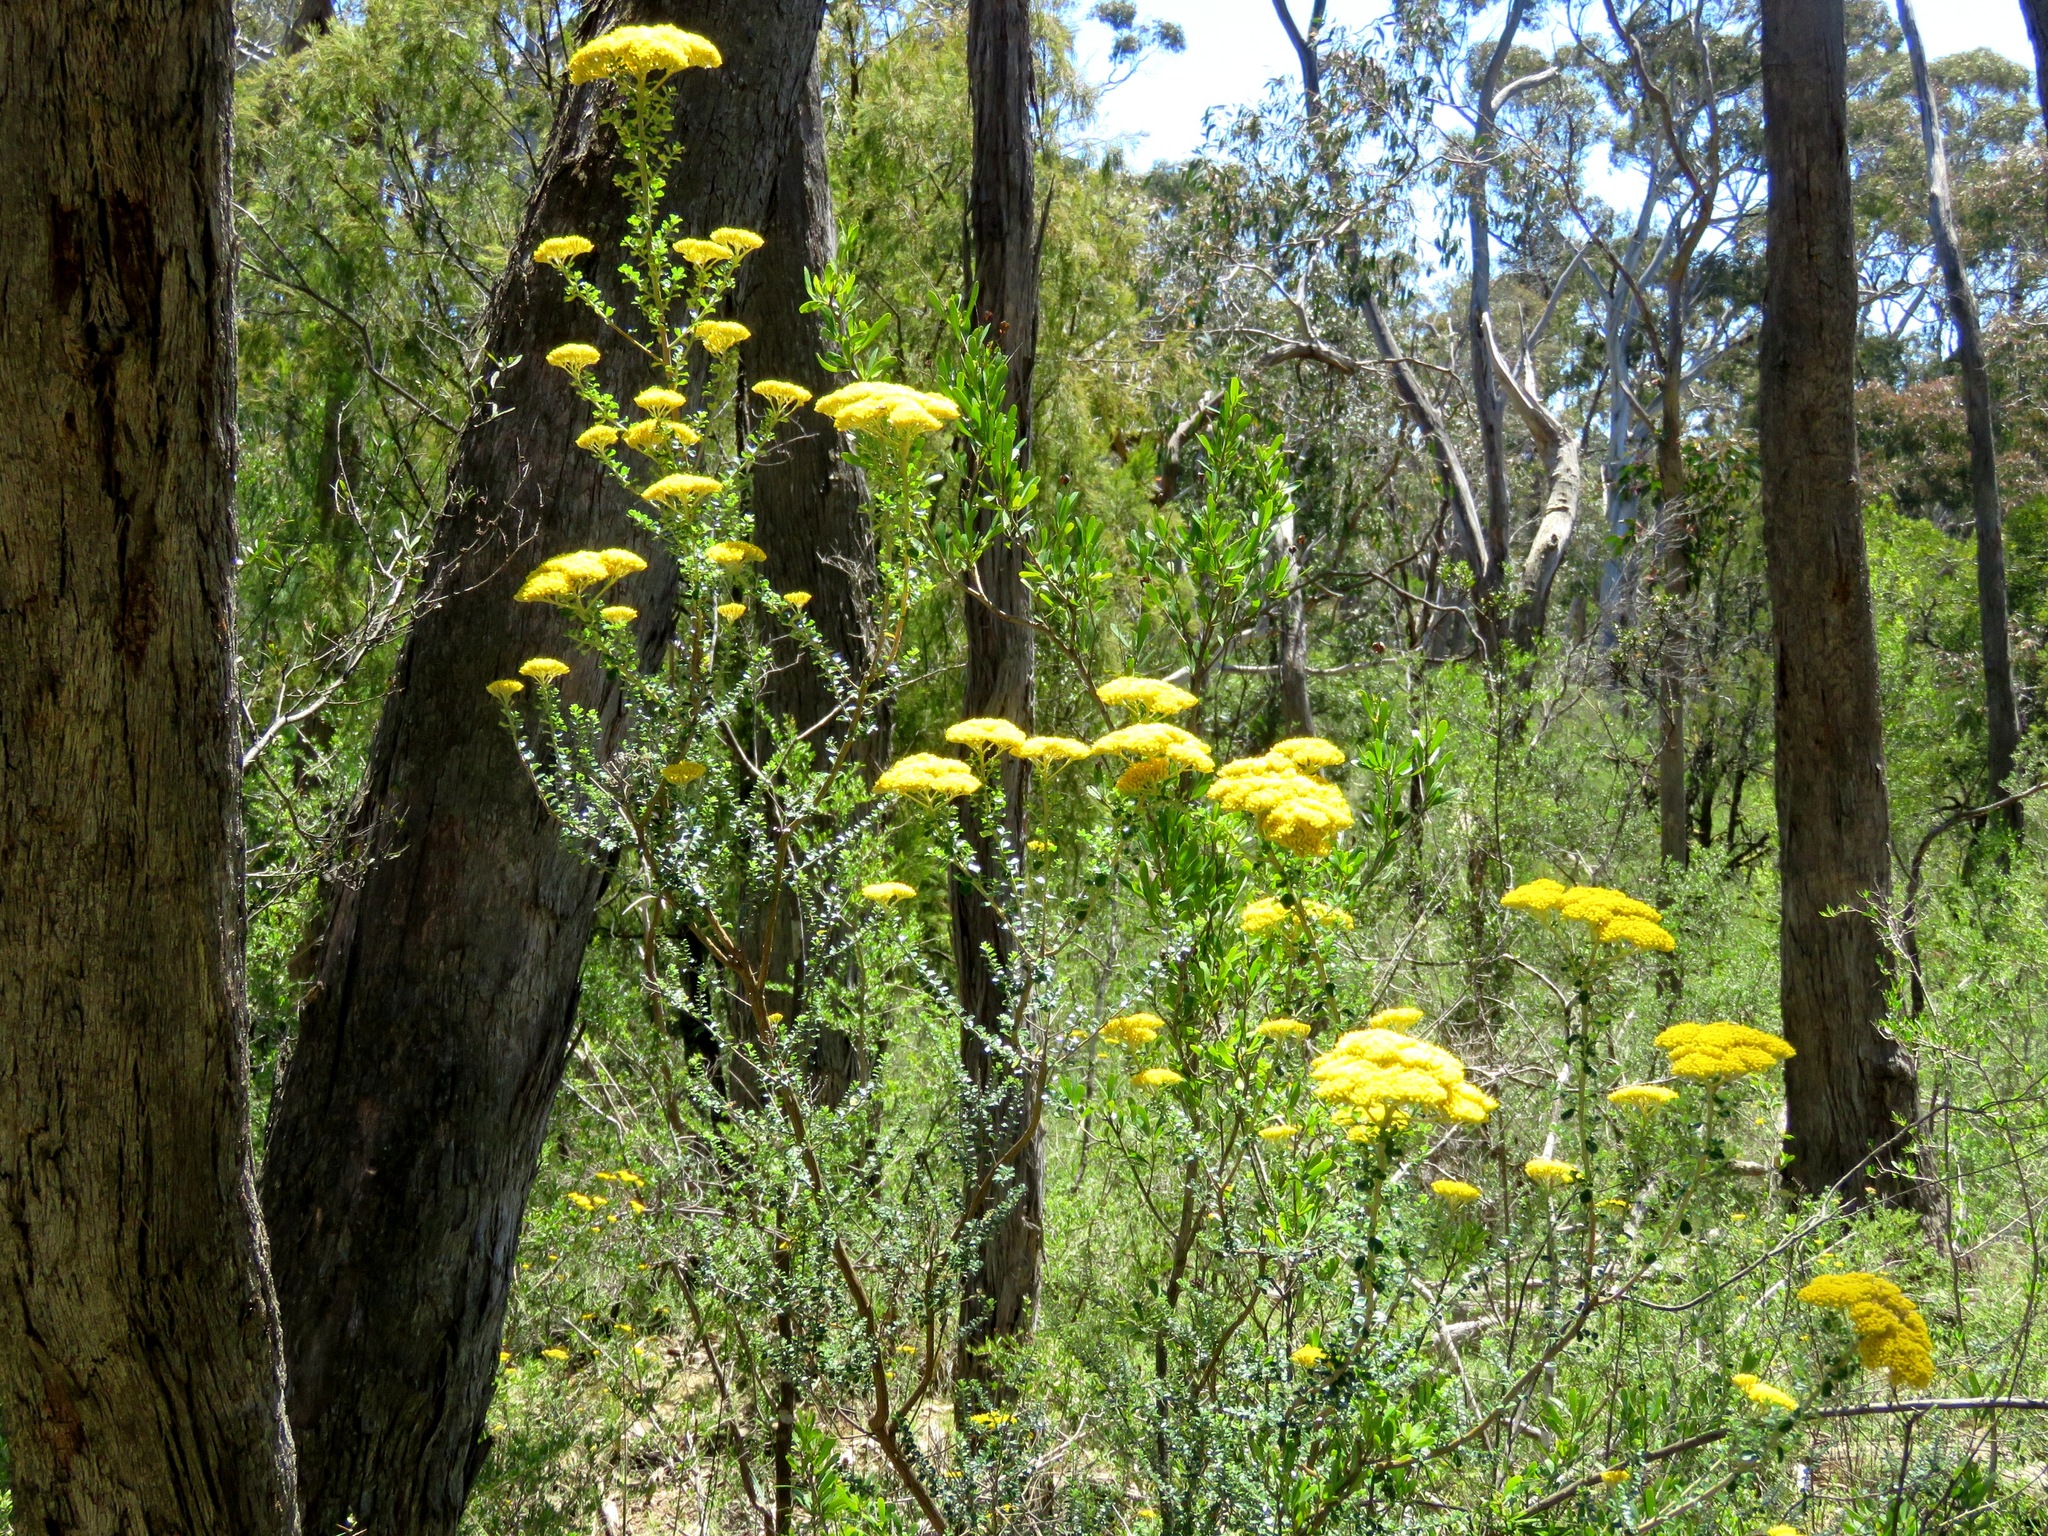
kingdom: Plantae
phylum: Tracheophyta
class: Magnoliopsida
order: Asterales
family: Asteraceae
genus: Ozothamnus
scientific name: Ozothamnus obcordatus
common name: Grey everlasting
